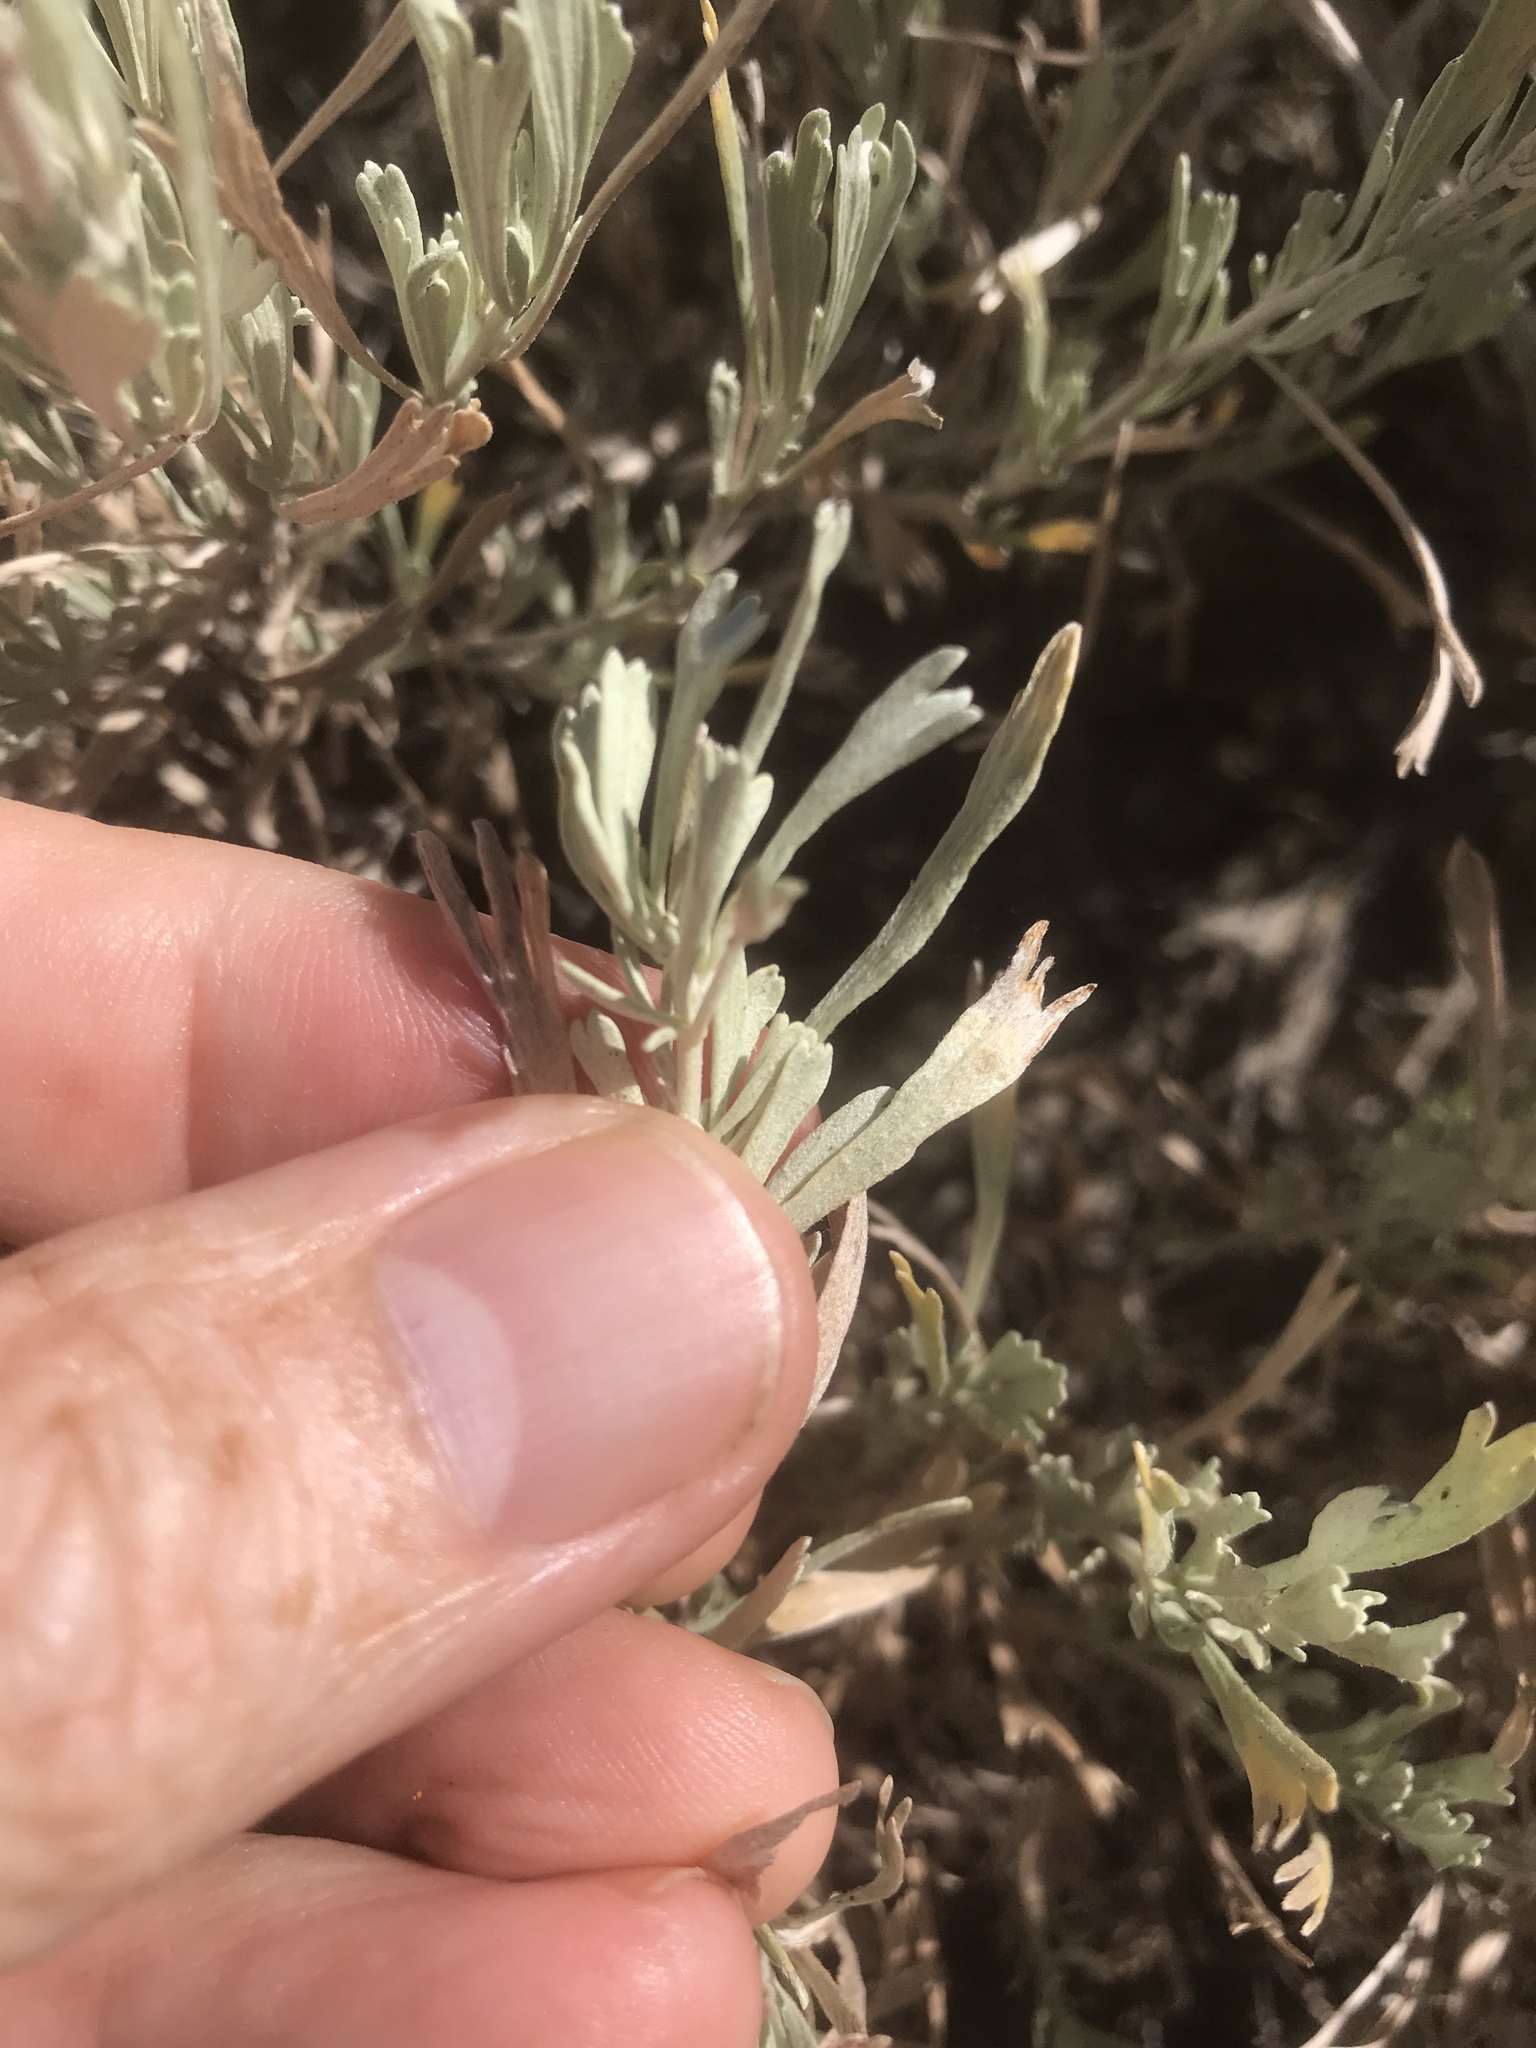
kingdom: Plantae
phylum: Tracheophyta
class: Magnoliopsida
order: Asterales
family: Asteraceae
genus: Artemisia
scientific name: Artemisia tridentata
